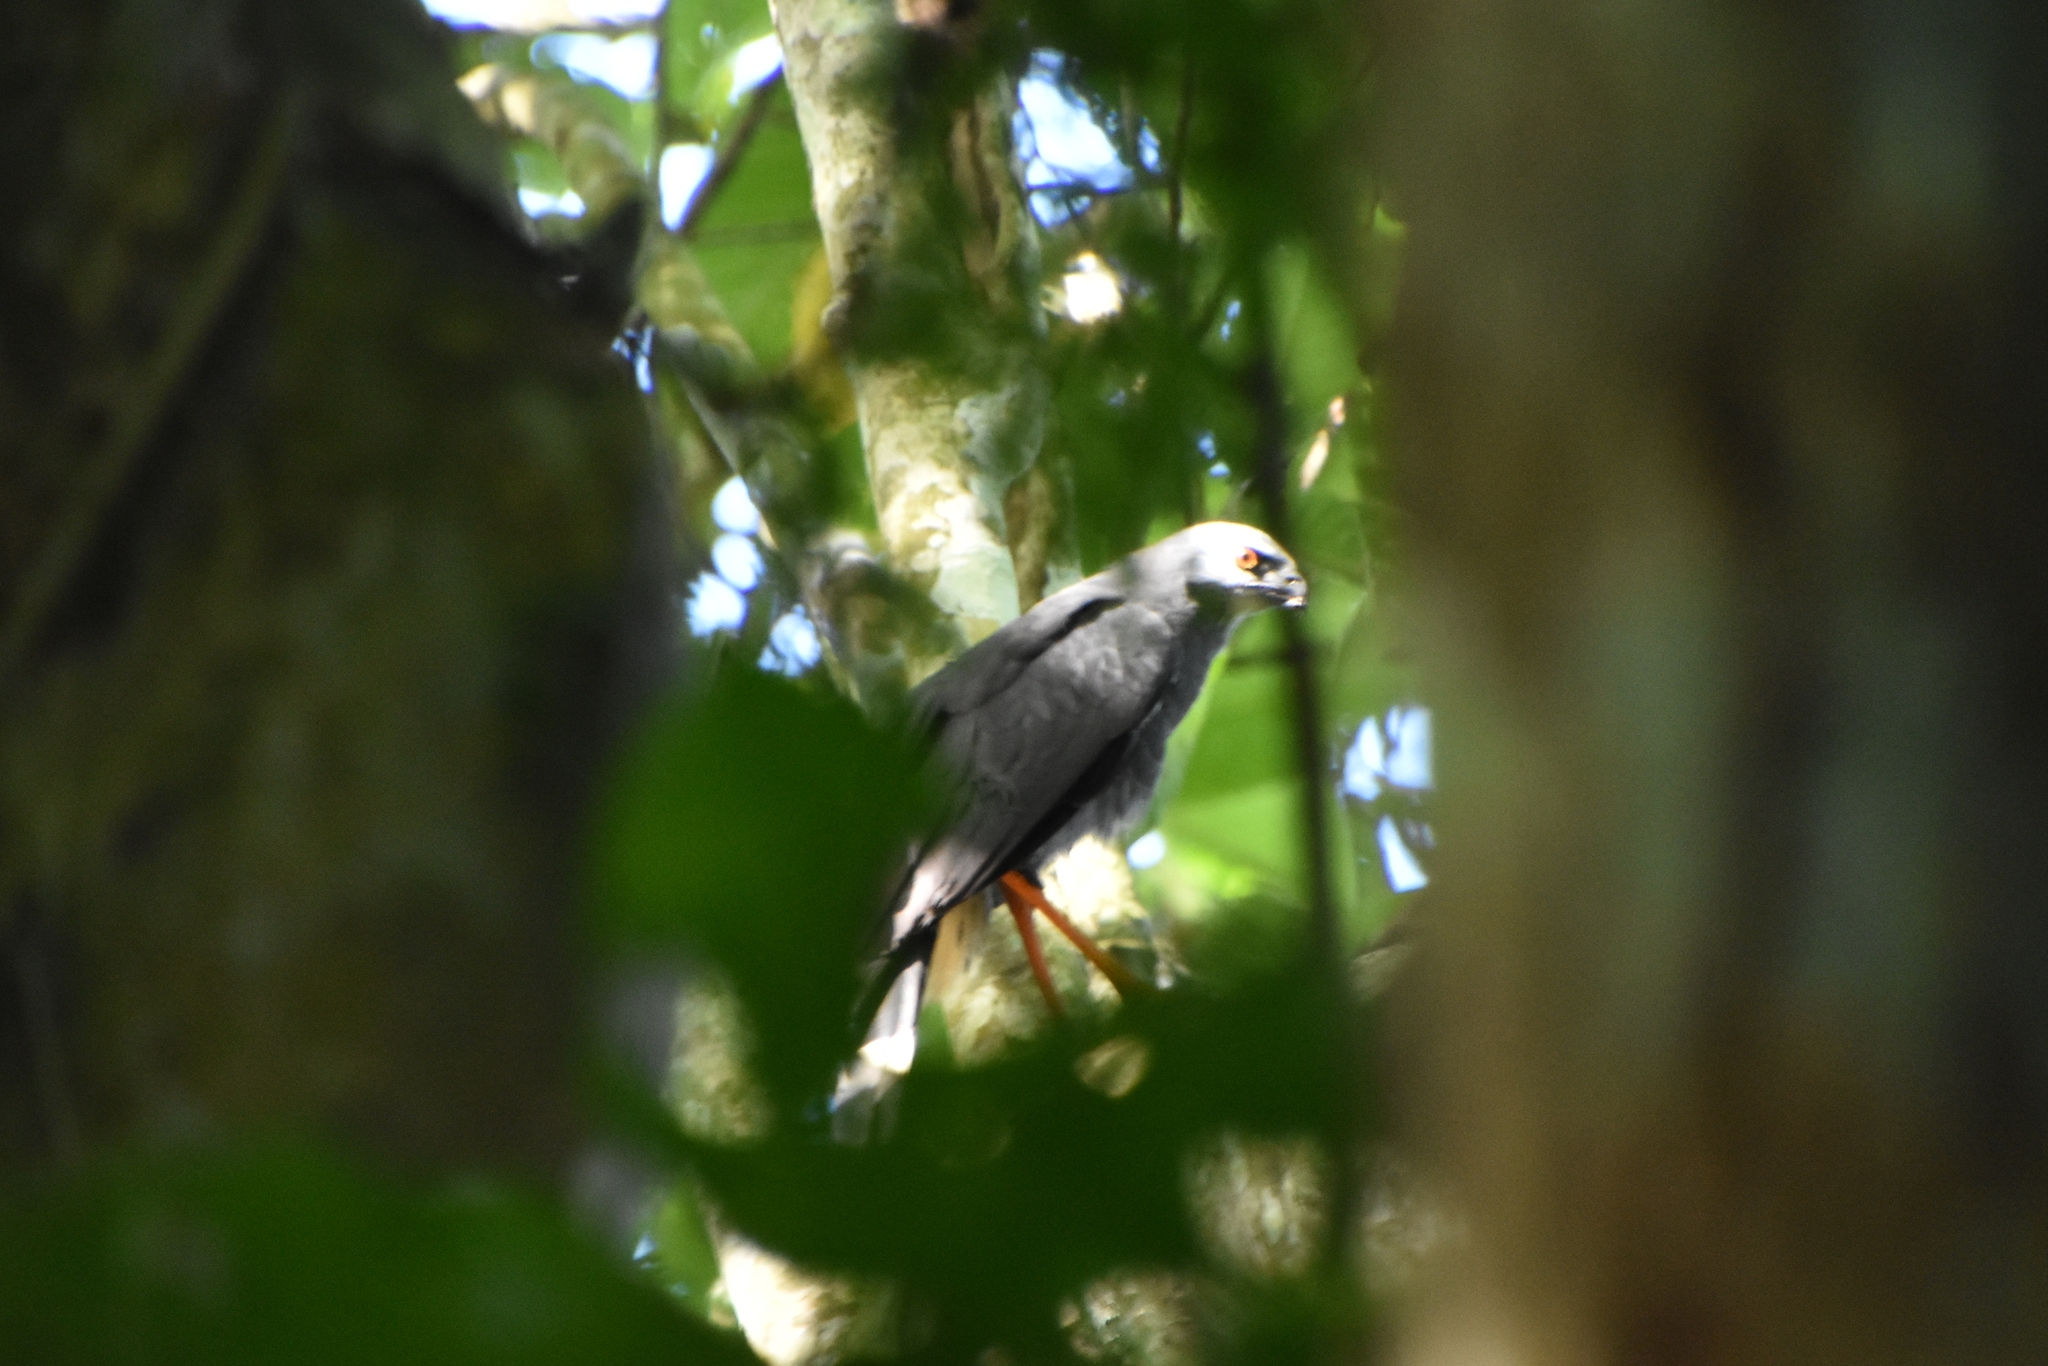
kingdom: Animalia
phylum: Chordata
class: Aves
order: Accipitriformes
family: Accipitridae
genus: Geranospiza
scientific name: Geranospiza caerulescens
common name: Crane hawk
